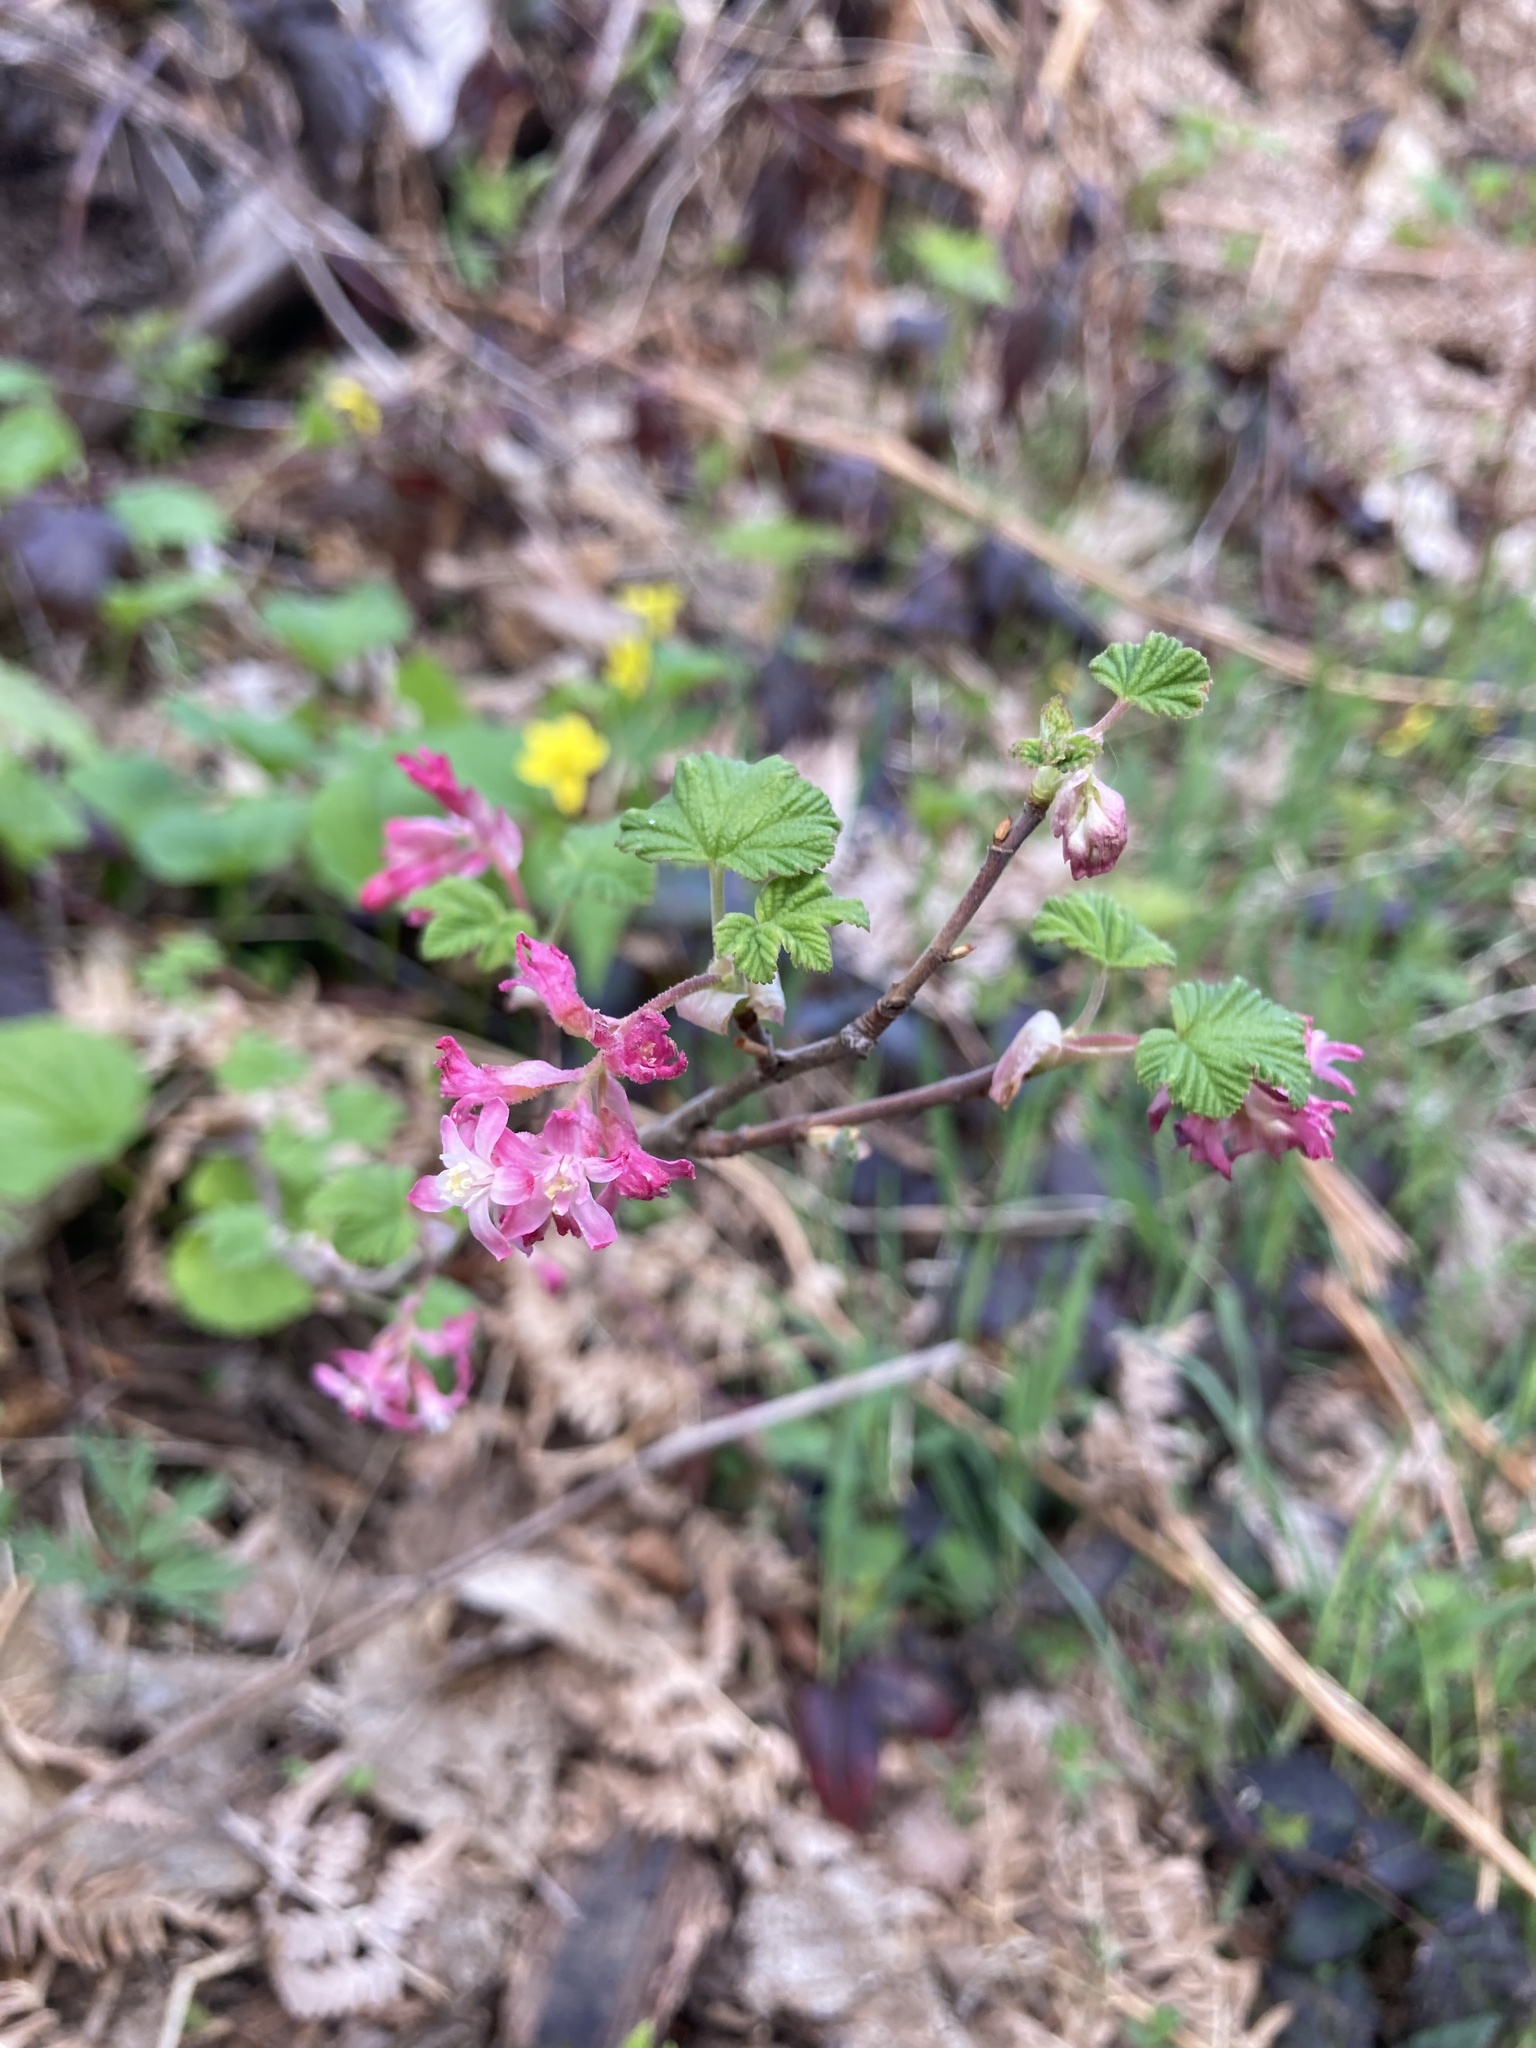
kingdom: Plantae
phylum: Tracheophyta
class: Magnoliopsida
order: Saxifragales
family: Grossulariaceae
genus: Ribes
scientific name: Ribes sanguineum
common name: Flowering currant
